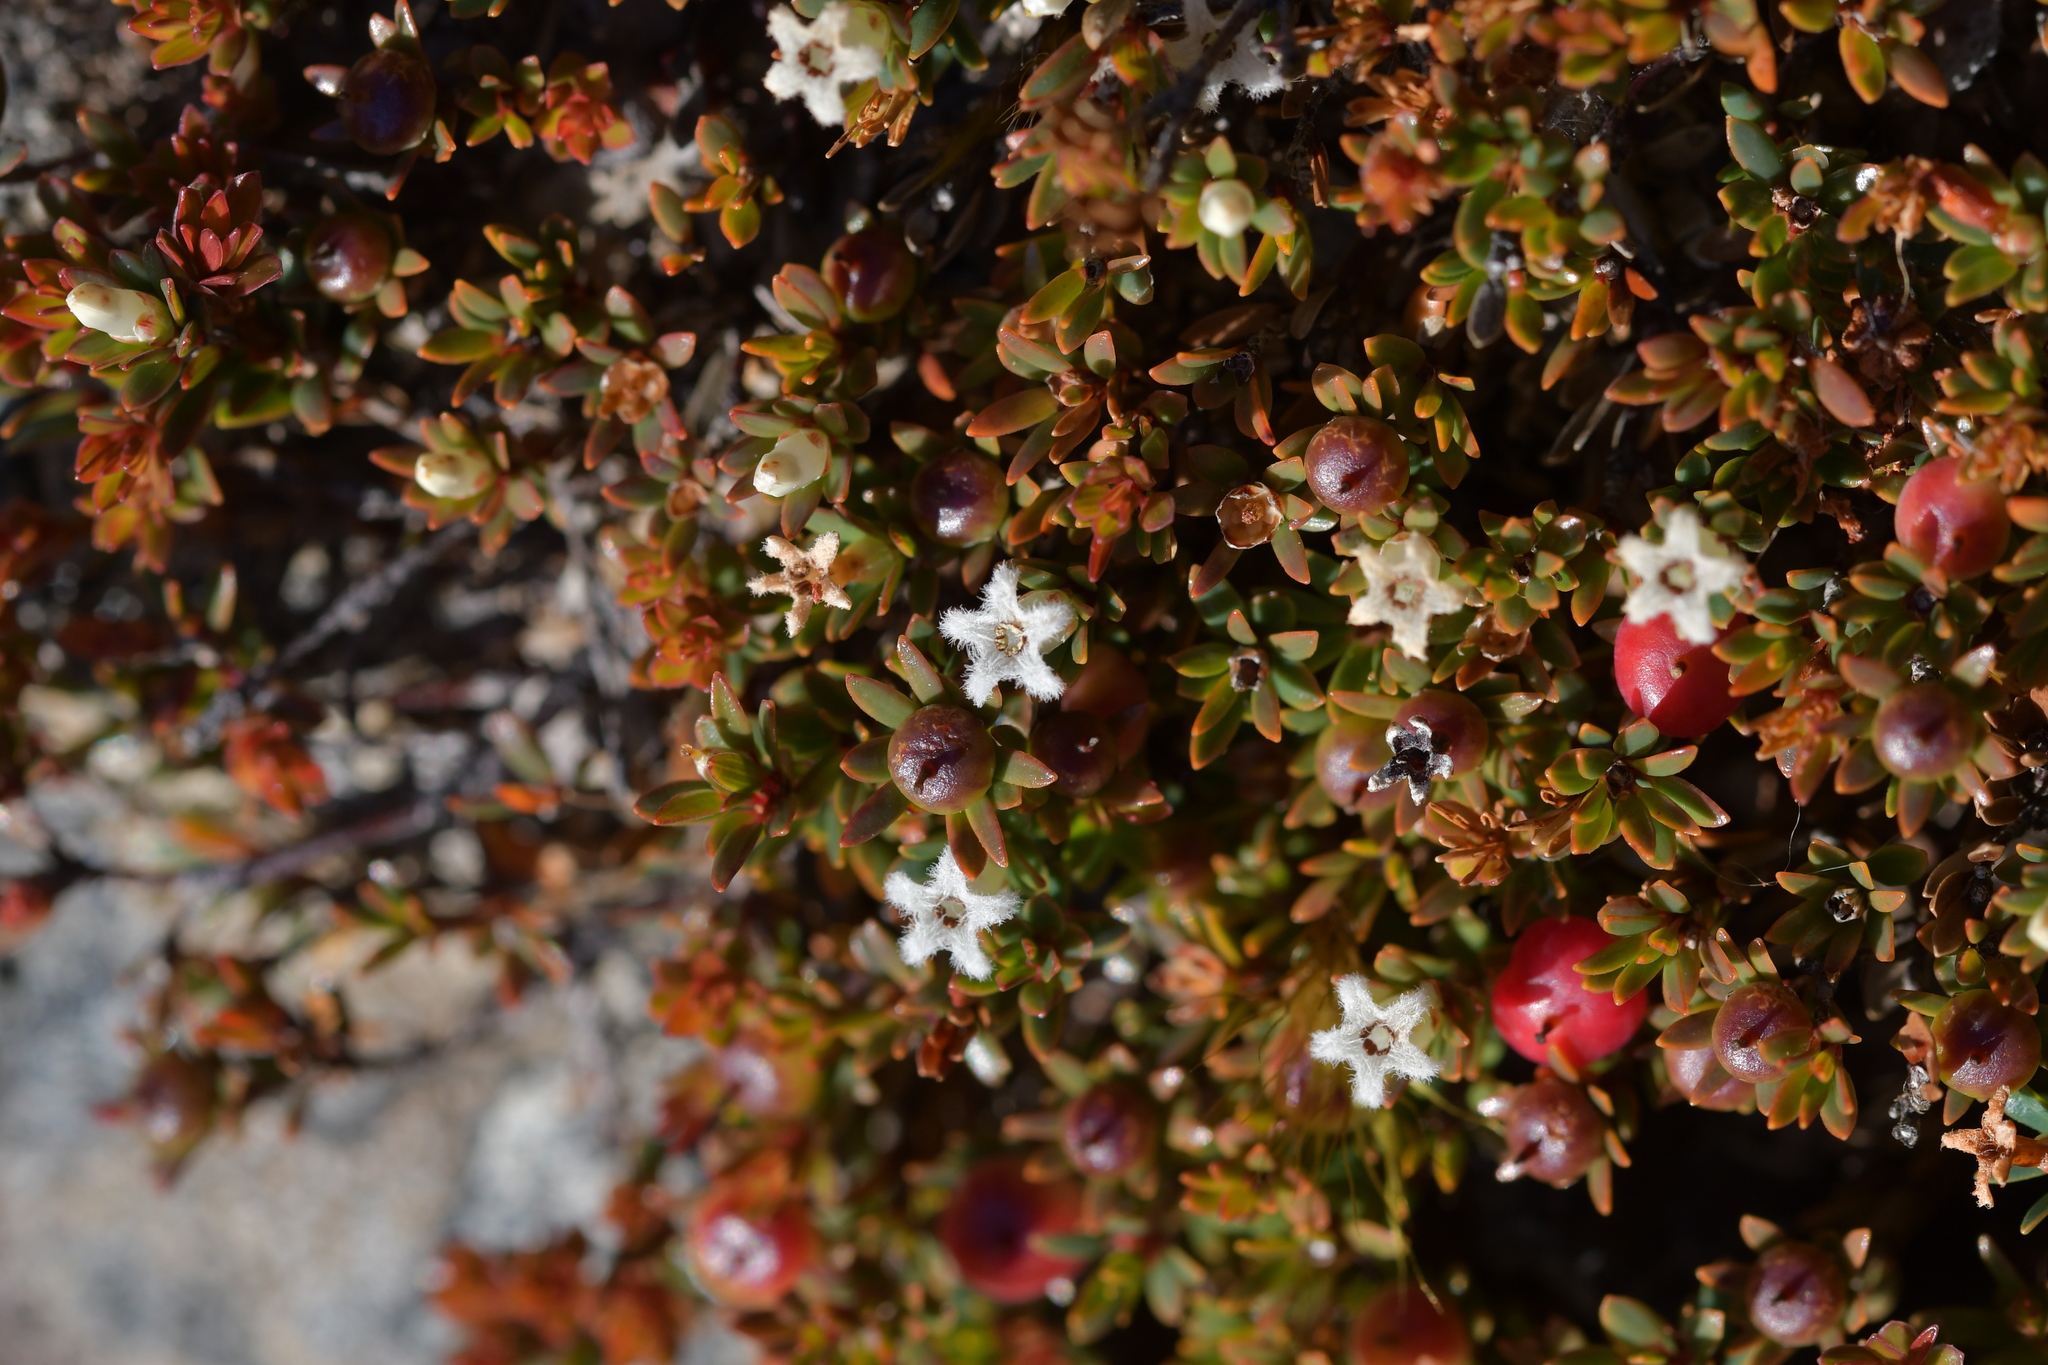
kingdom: Plantae
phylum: Tracheophyta
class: Magnoliopsida
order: Ericales
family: Ericaceae
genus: Pentachondra
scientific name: Pentachondra pumila
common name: Carpet-heath
